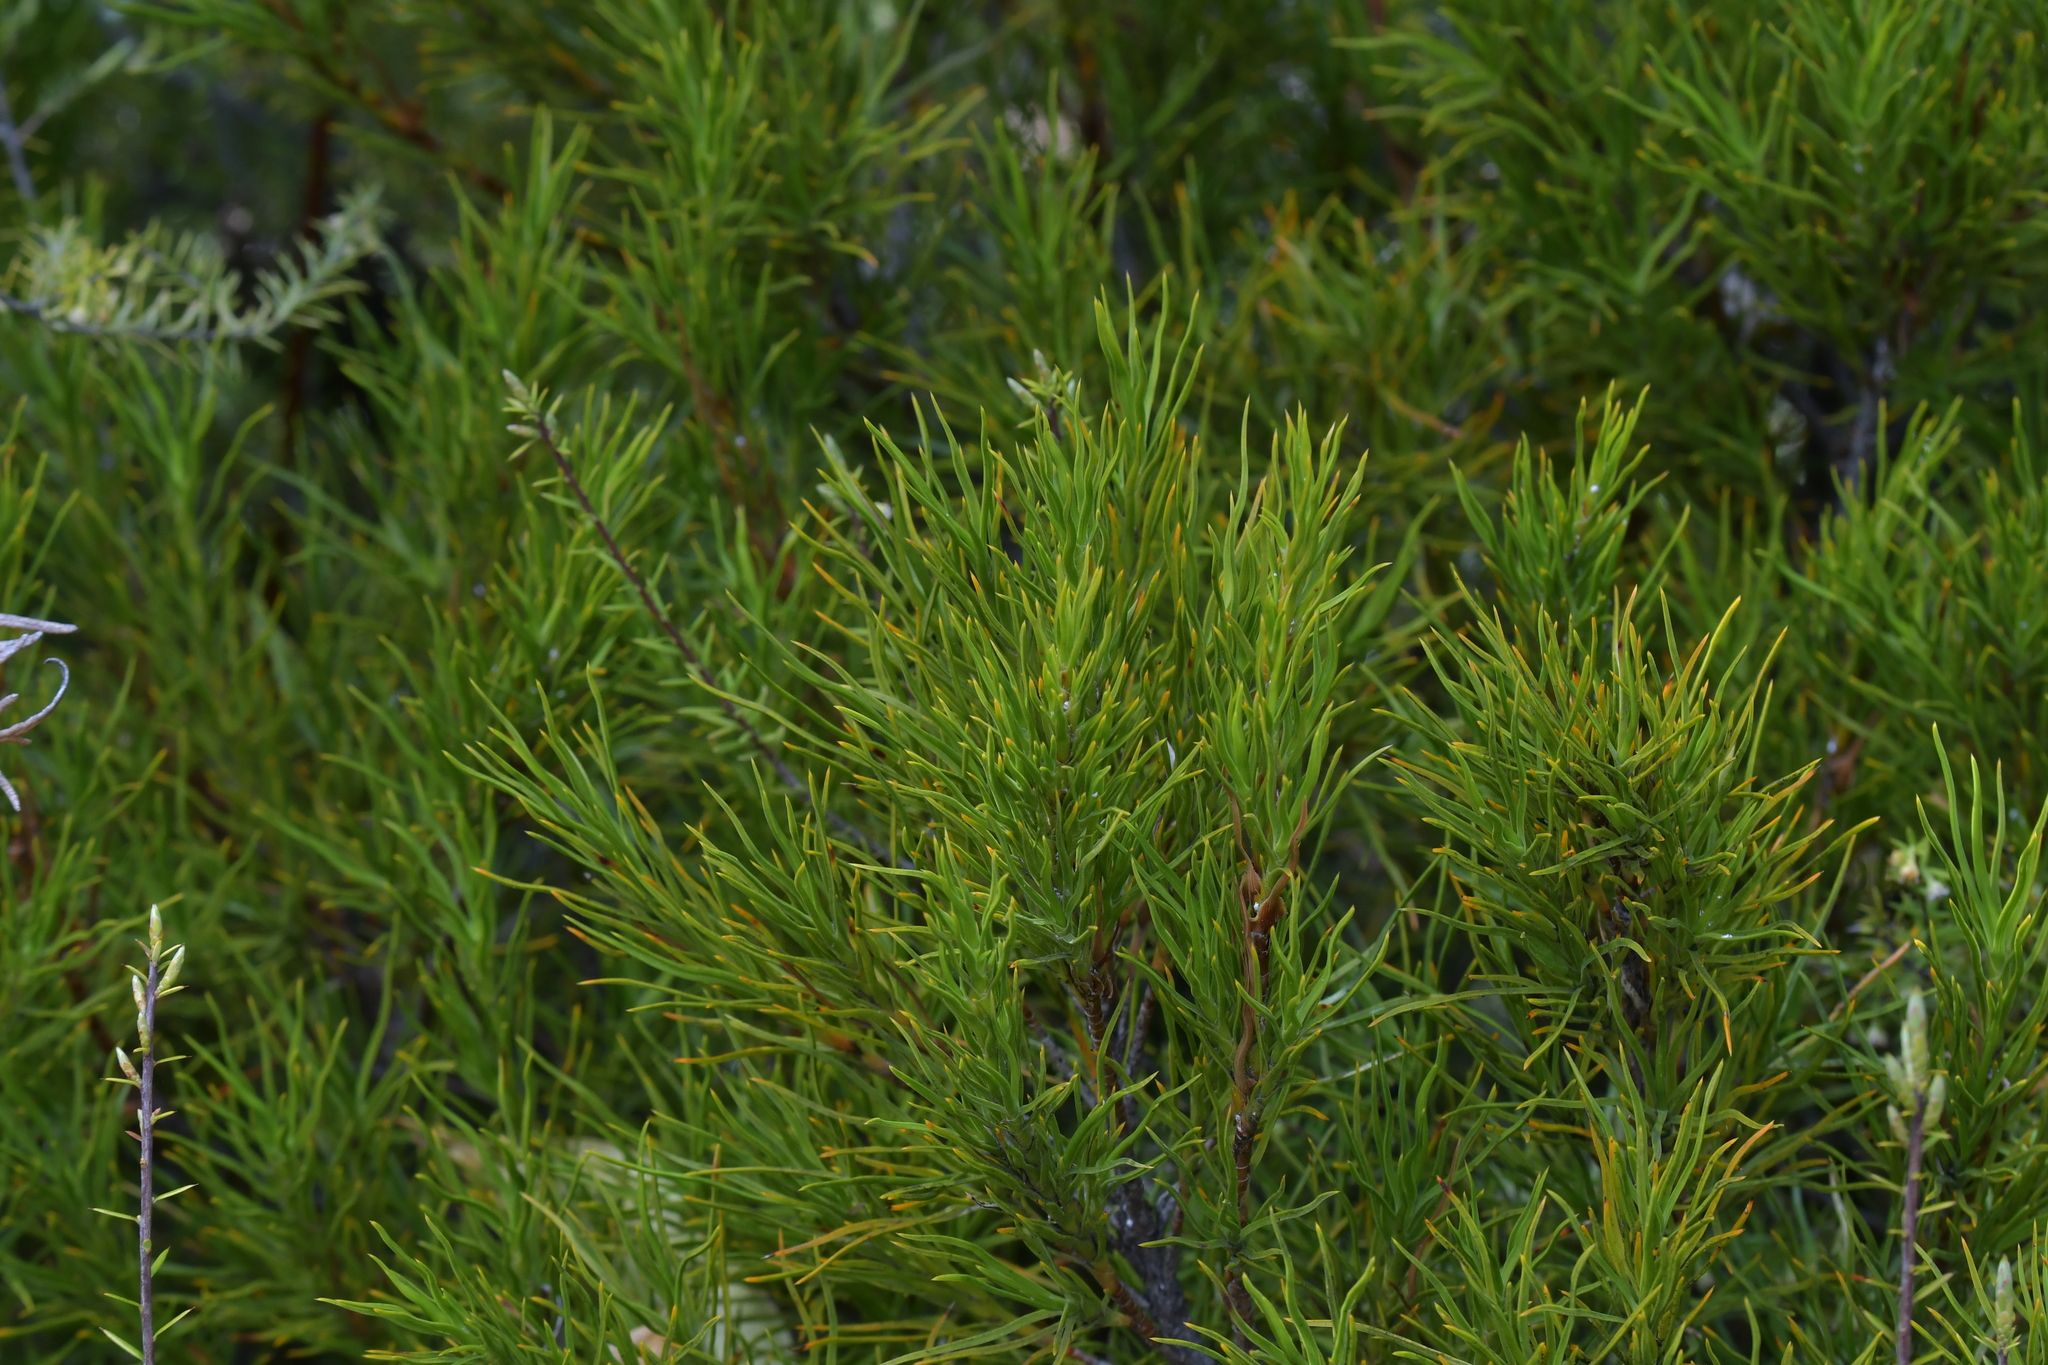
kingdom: Plantae
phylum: Tracheophyta
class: Magnoliopsida
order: Ericales
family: Ericaceae
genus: Dracophyllum
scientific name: Dracophyllum rosmarinifolium
